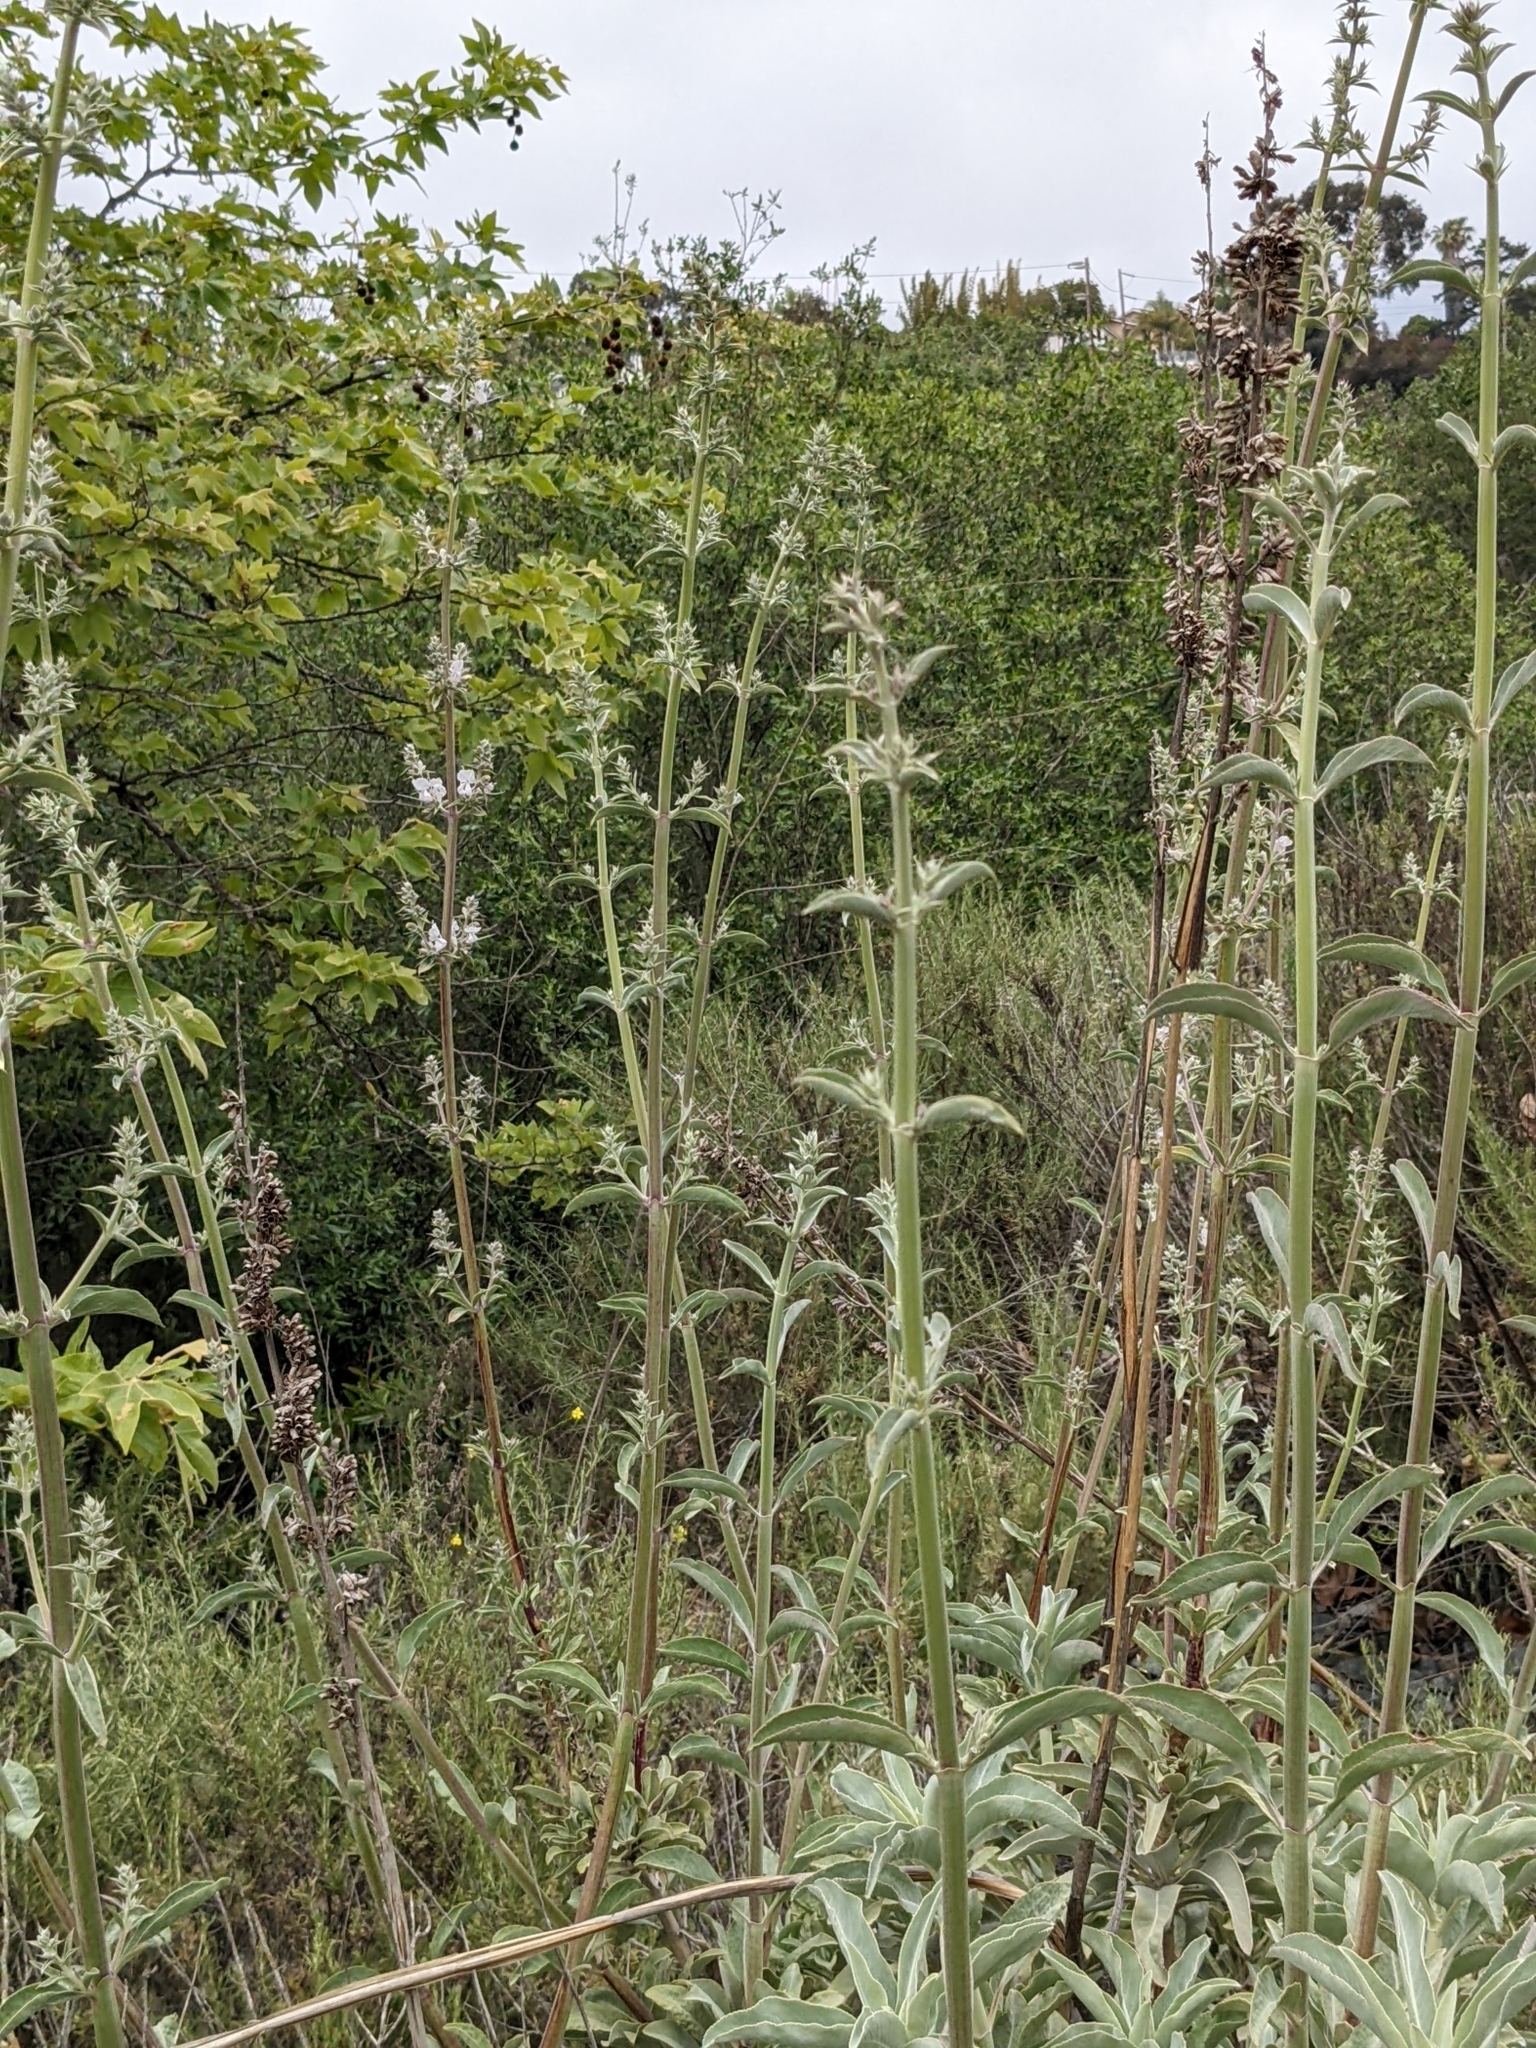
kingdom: Plantae
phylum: Tracheophyta
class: Magnoliopsida
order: Lamiales
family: Lamiaceae
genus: Salvia
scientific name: Salvia apiana
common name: White sage
